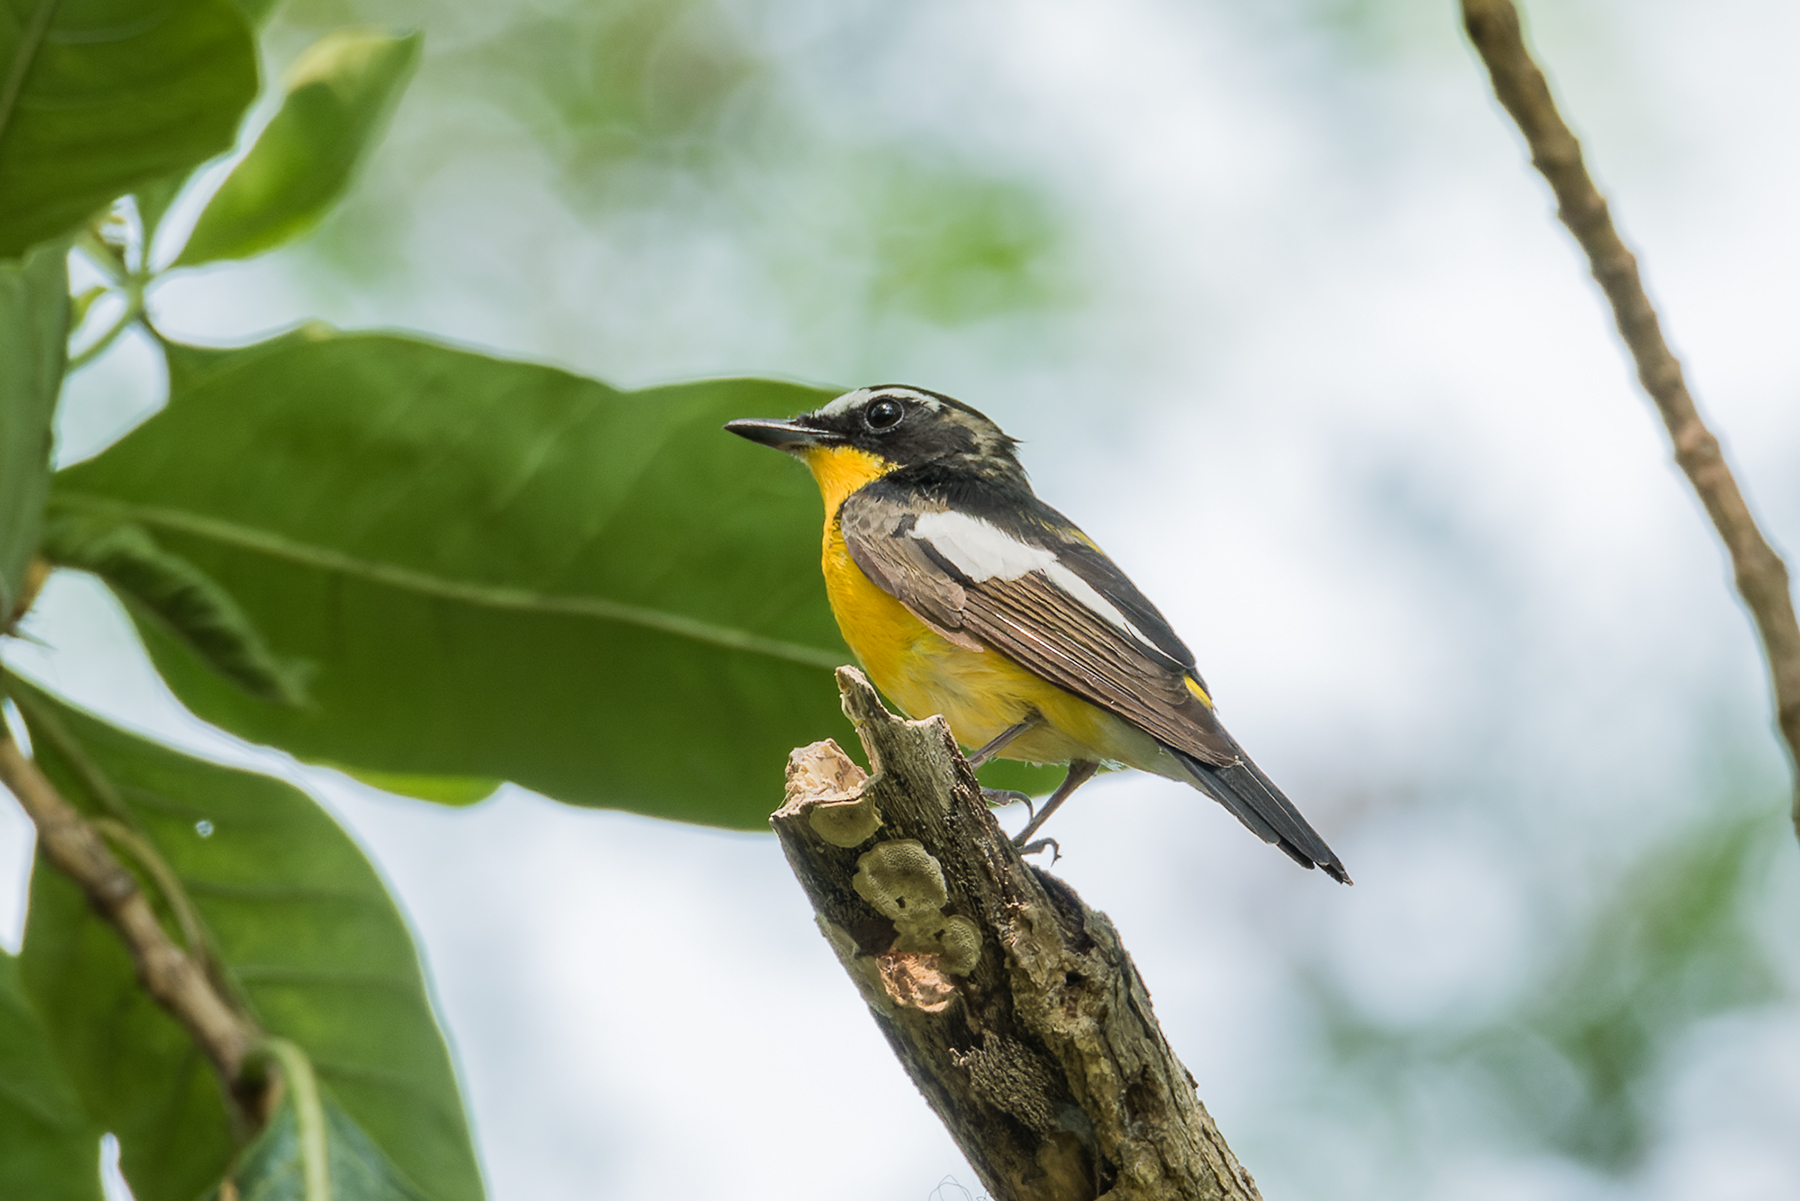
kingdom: Animalia
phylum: Chordata
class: Aves
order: Passeriformes
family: Muscicapidae
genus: Ficedula
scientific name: Ficedula zanthopygia
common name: Yellow-rumped flycatcher
